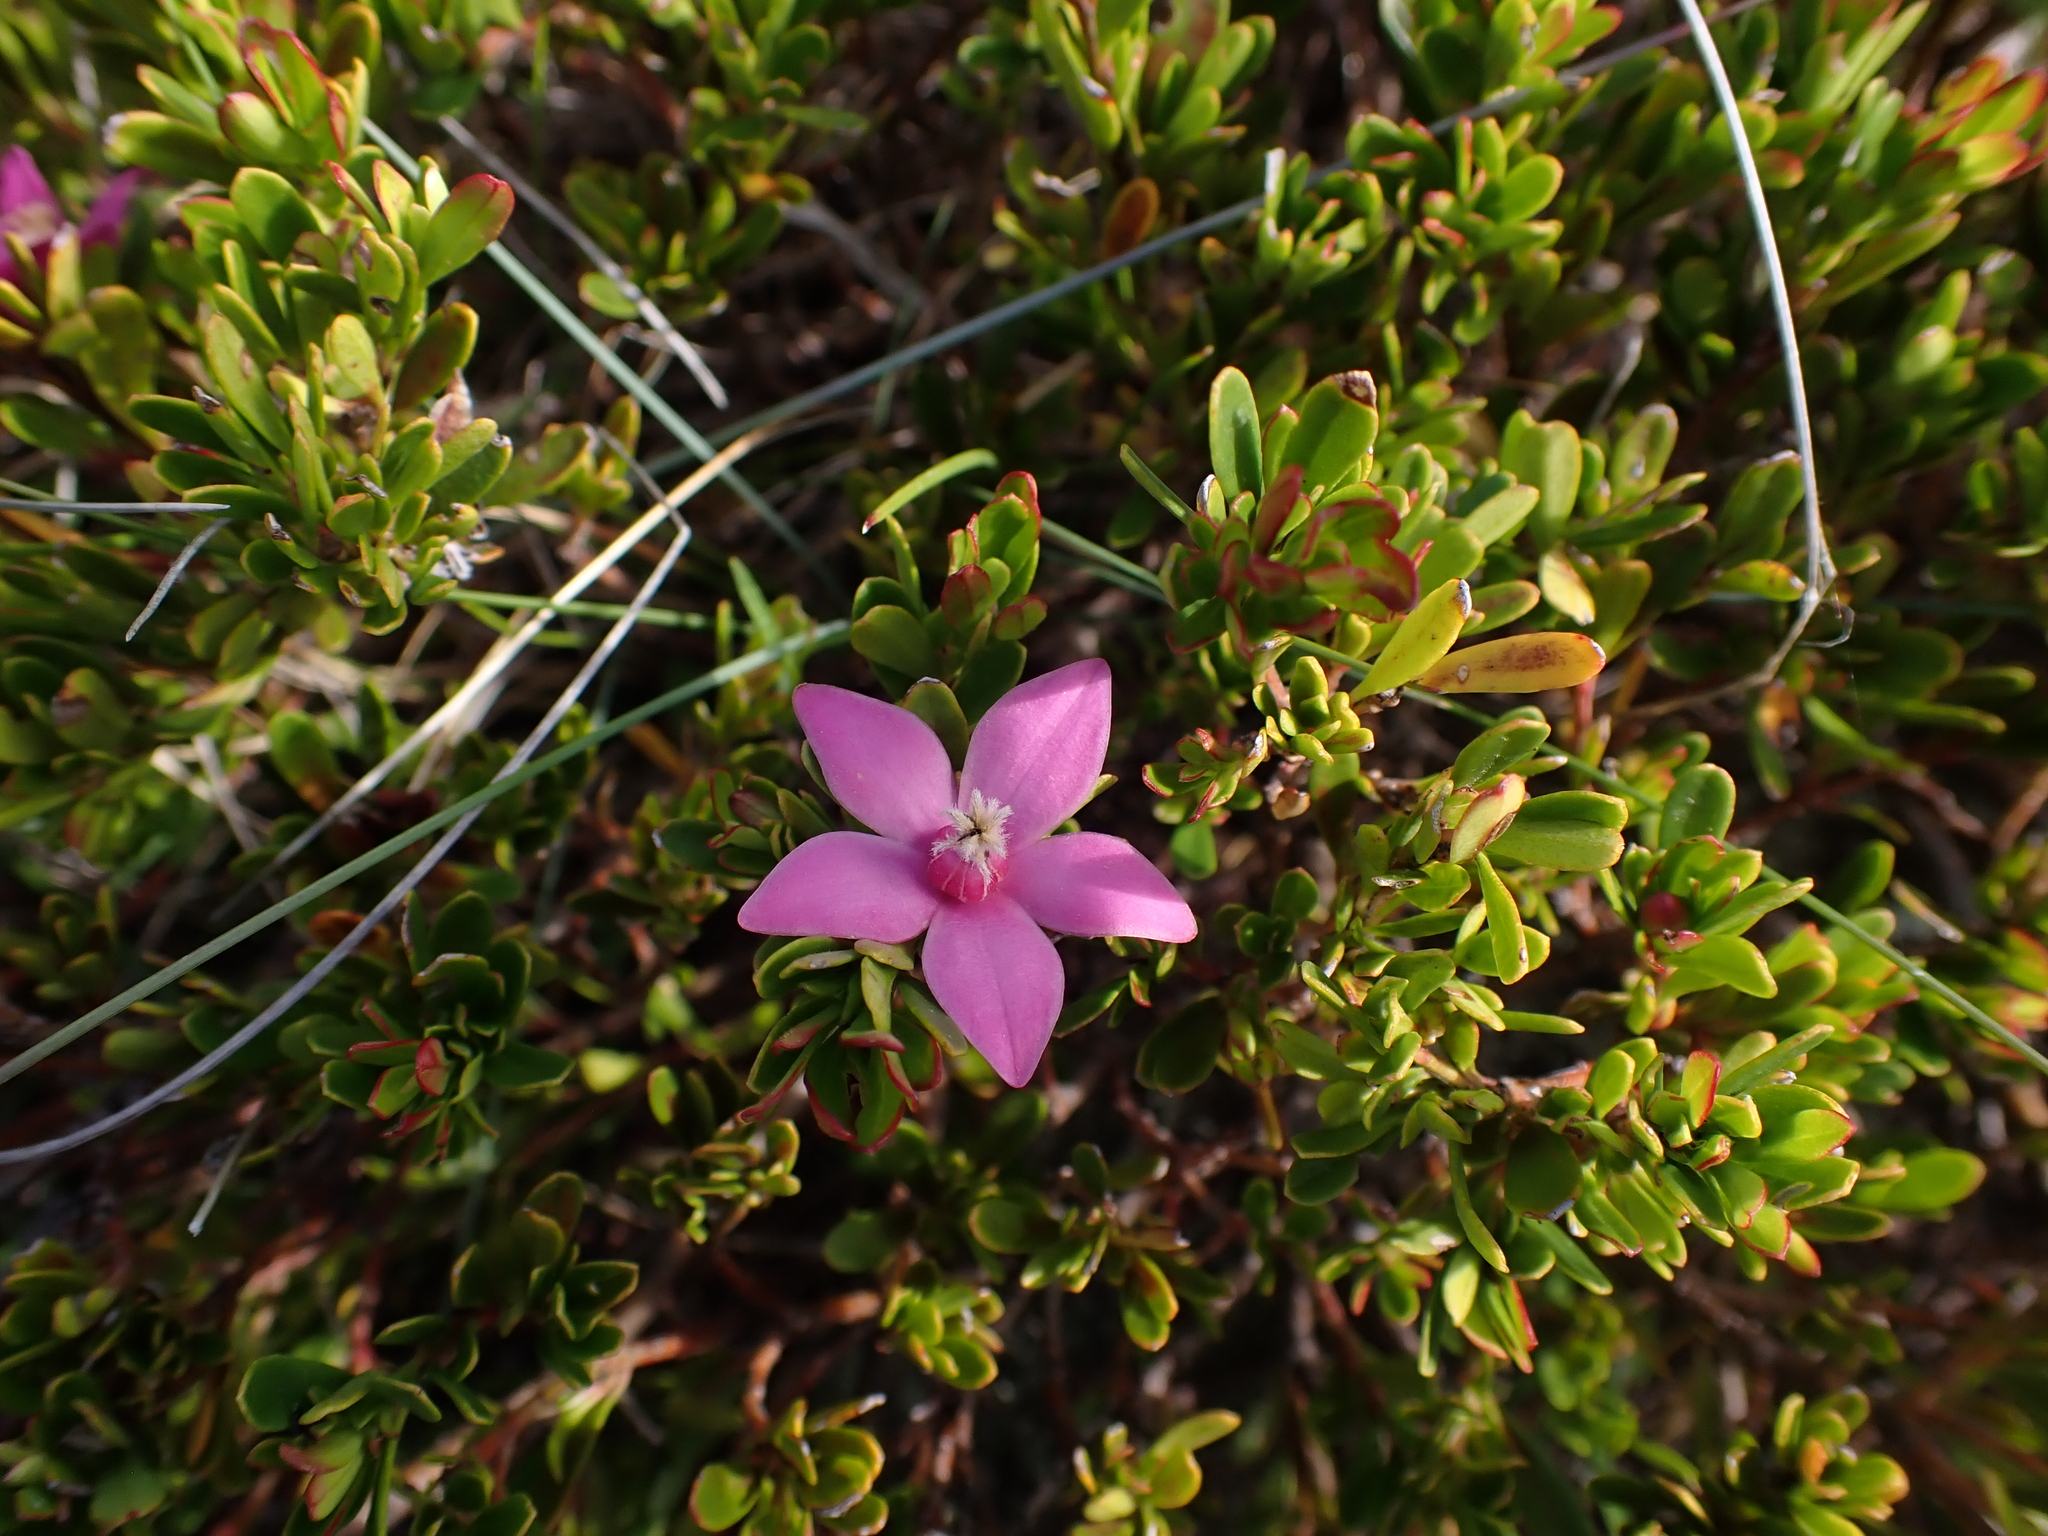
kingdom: Plantae
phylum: Tracheophyta
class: Magnoliopsida
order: Sapindales
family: Rutaceae
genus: Crowea
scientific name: Crowea exalata
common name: Small crowea
